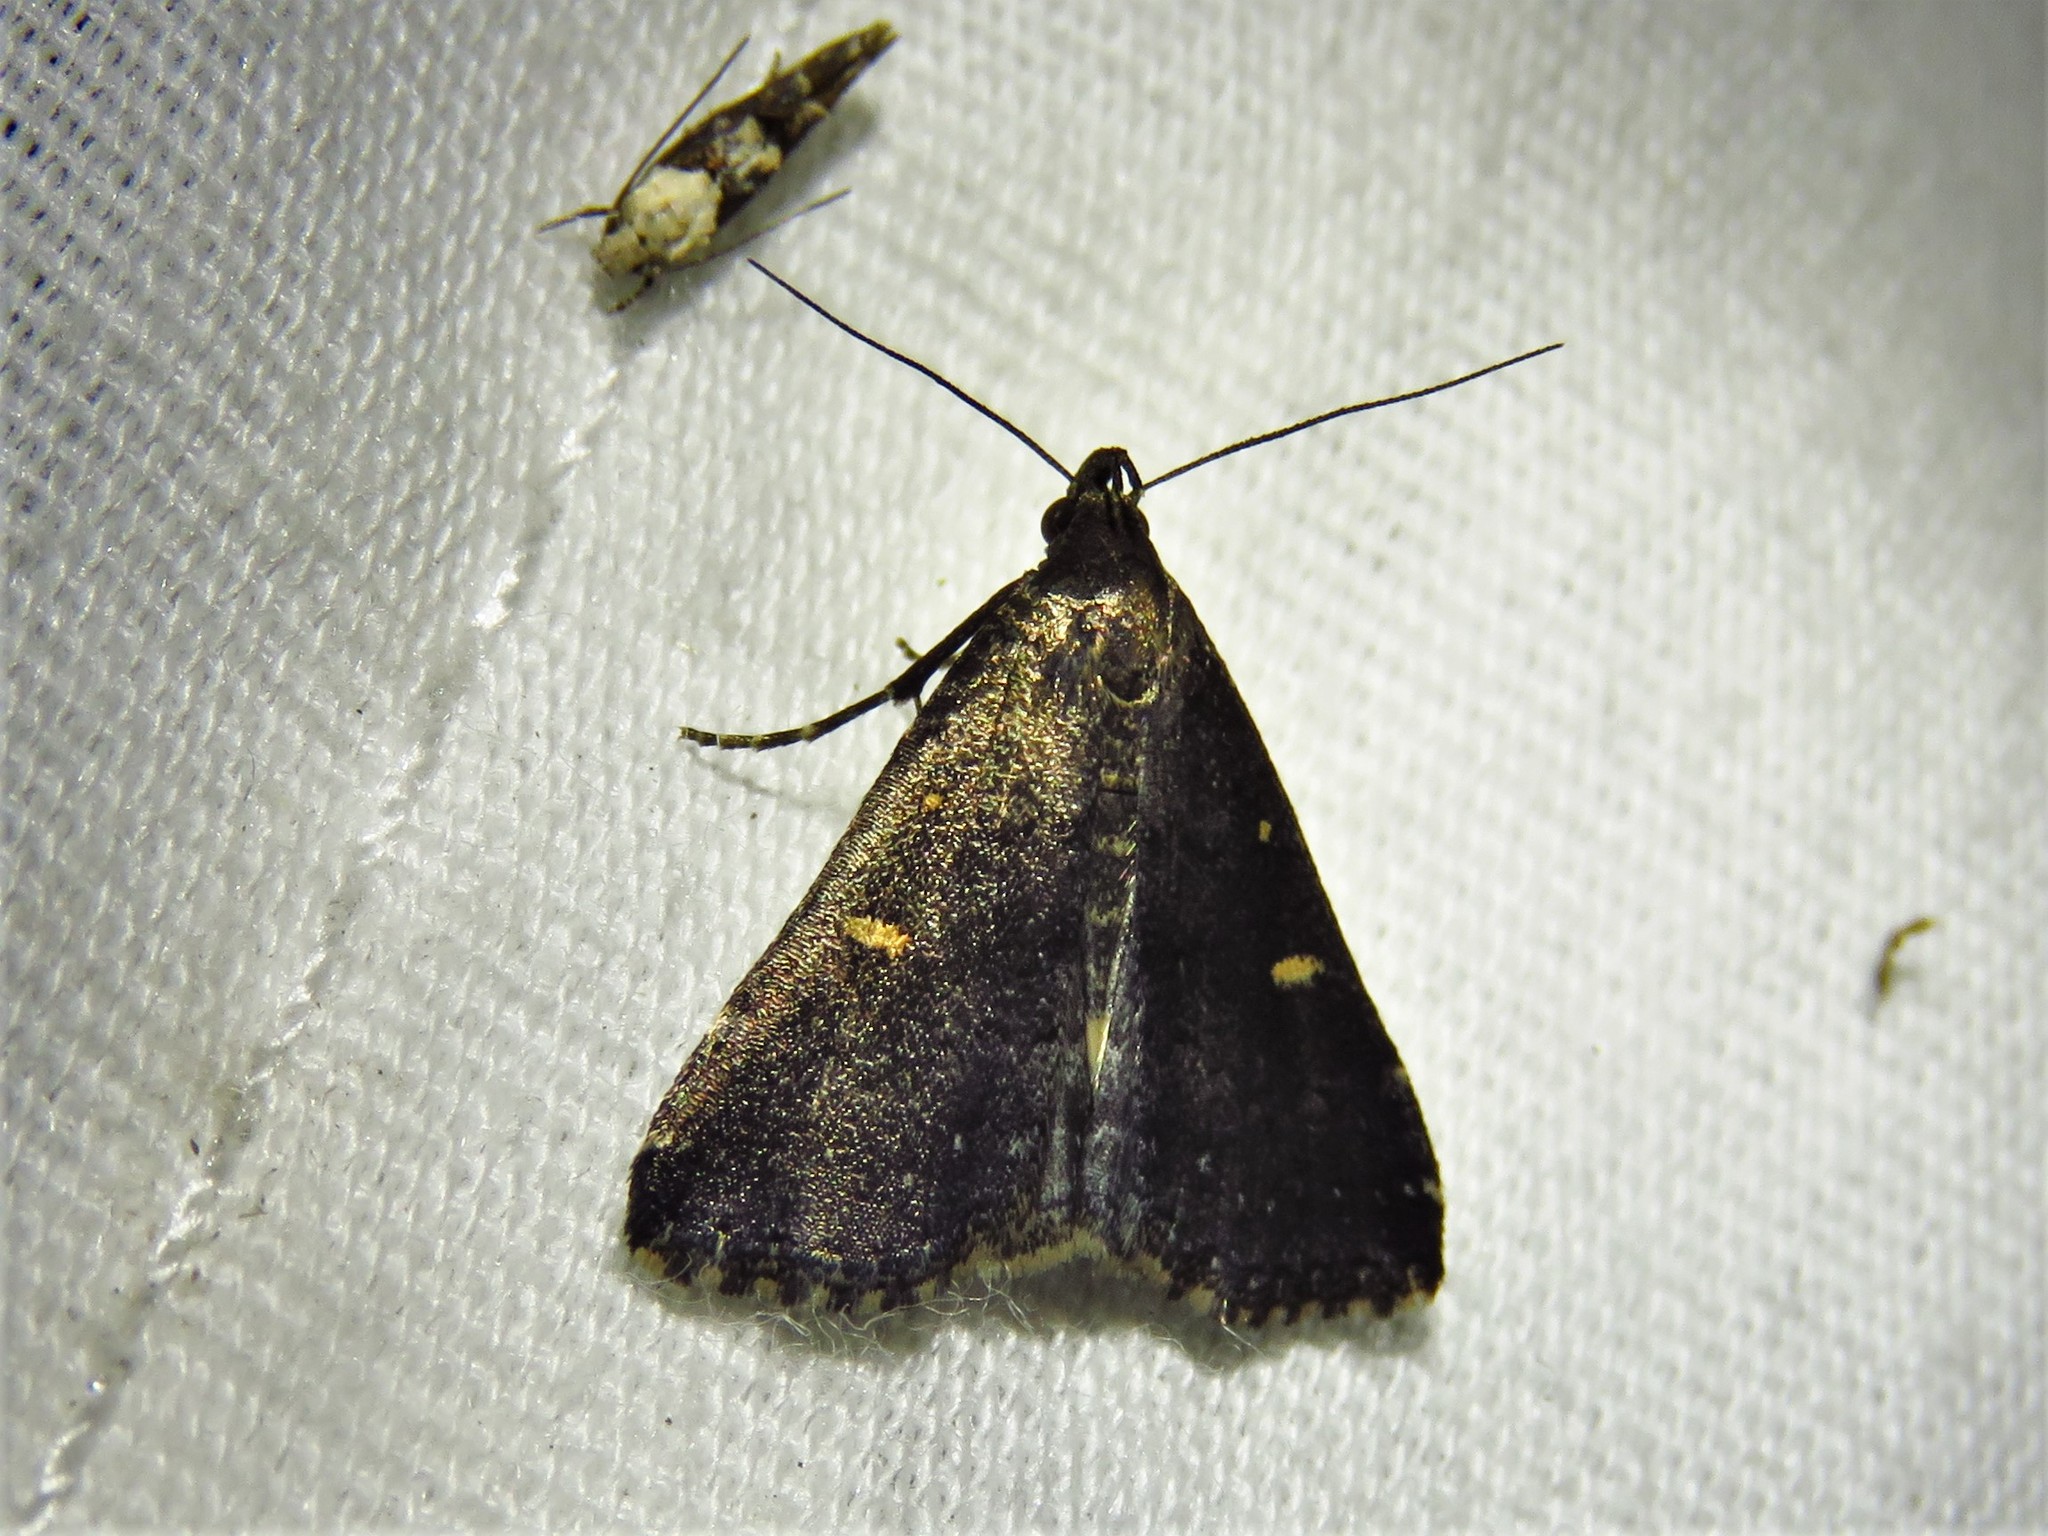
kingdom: Animalia
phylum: Arthropoda
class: Insecta
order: Lepidoptera
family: Erebidae
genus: Tetanolita
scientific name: Tetanolita mynesalis
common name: Smoky tetanolita moth
